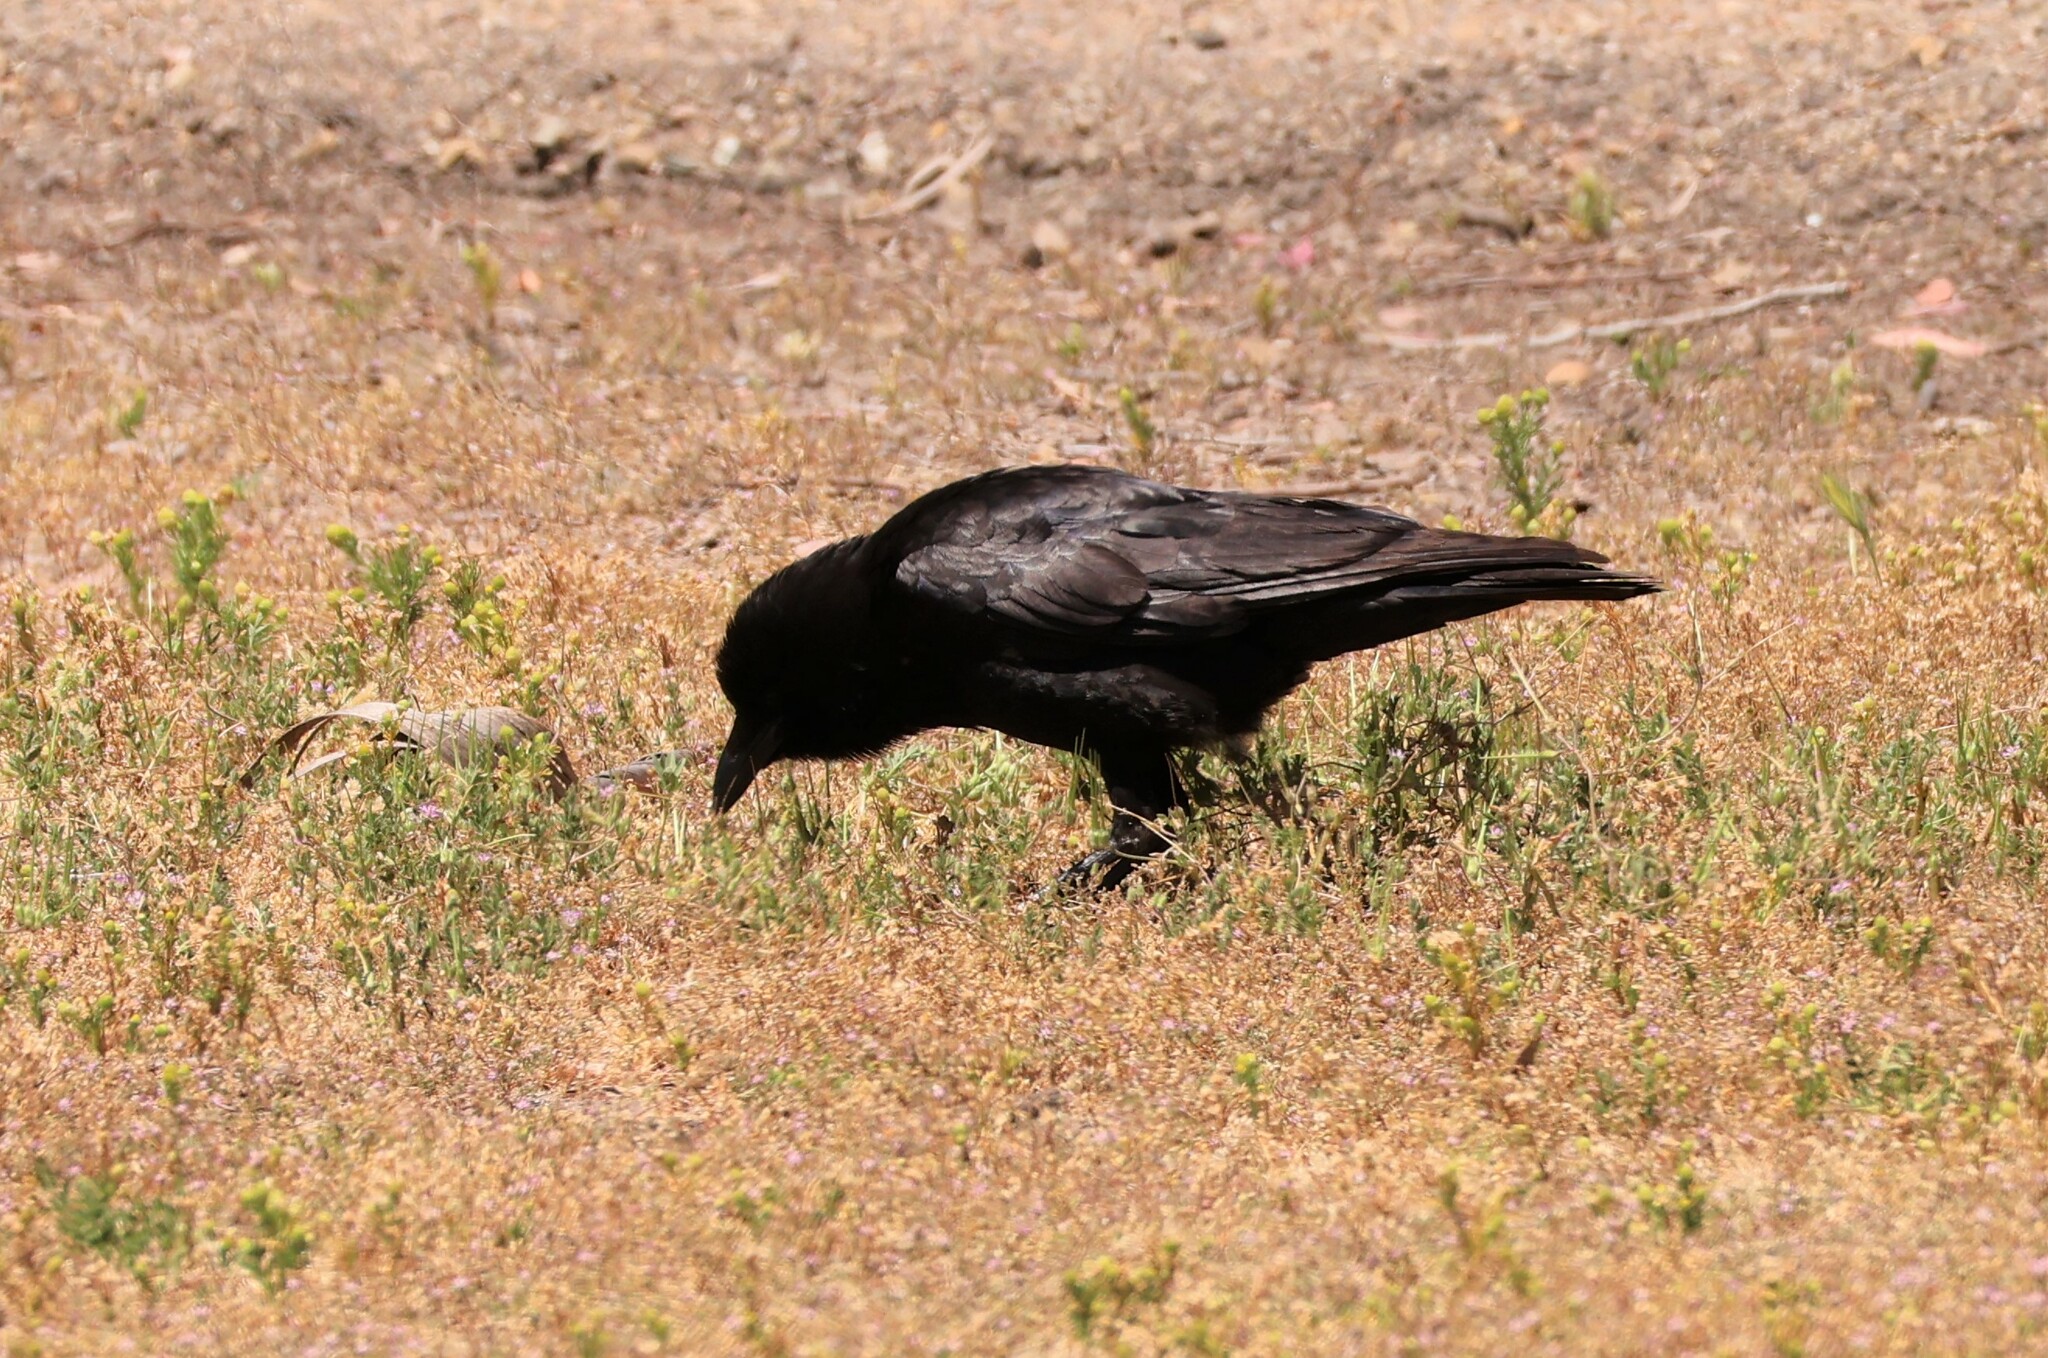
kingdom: Animalia
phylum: Chordata
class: Aves
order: Passeriformes
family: Corvidae
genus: Corvus
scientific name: Corvus brachyrhynchos
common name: American crow
